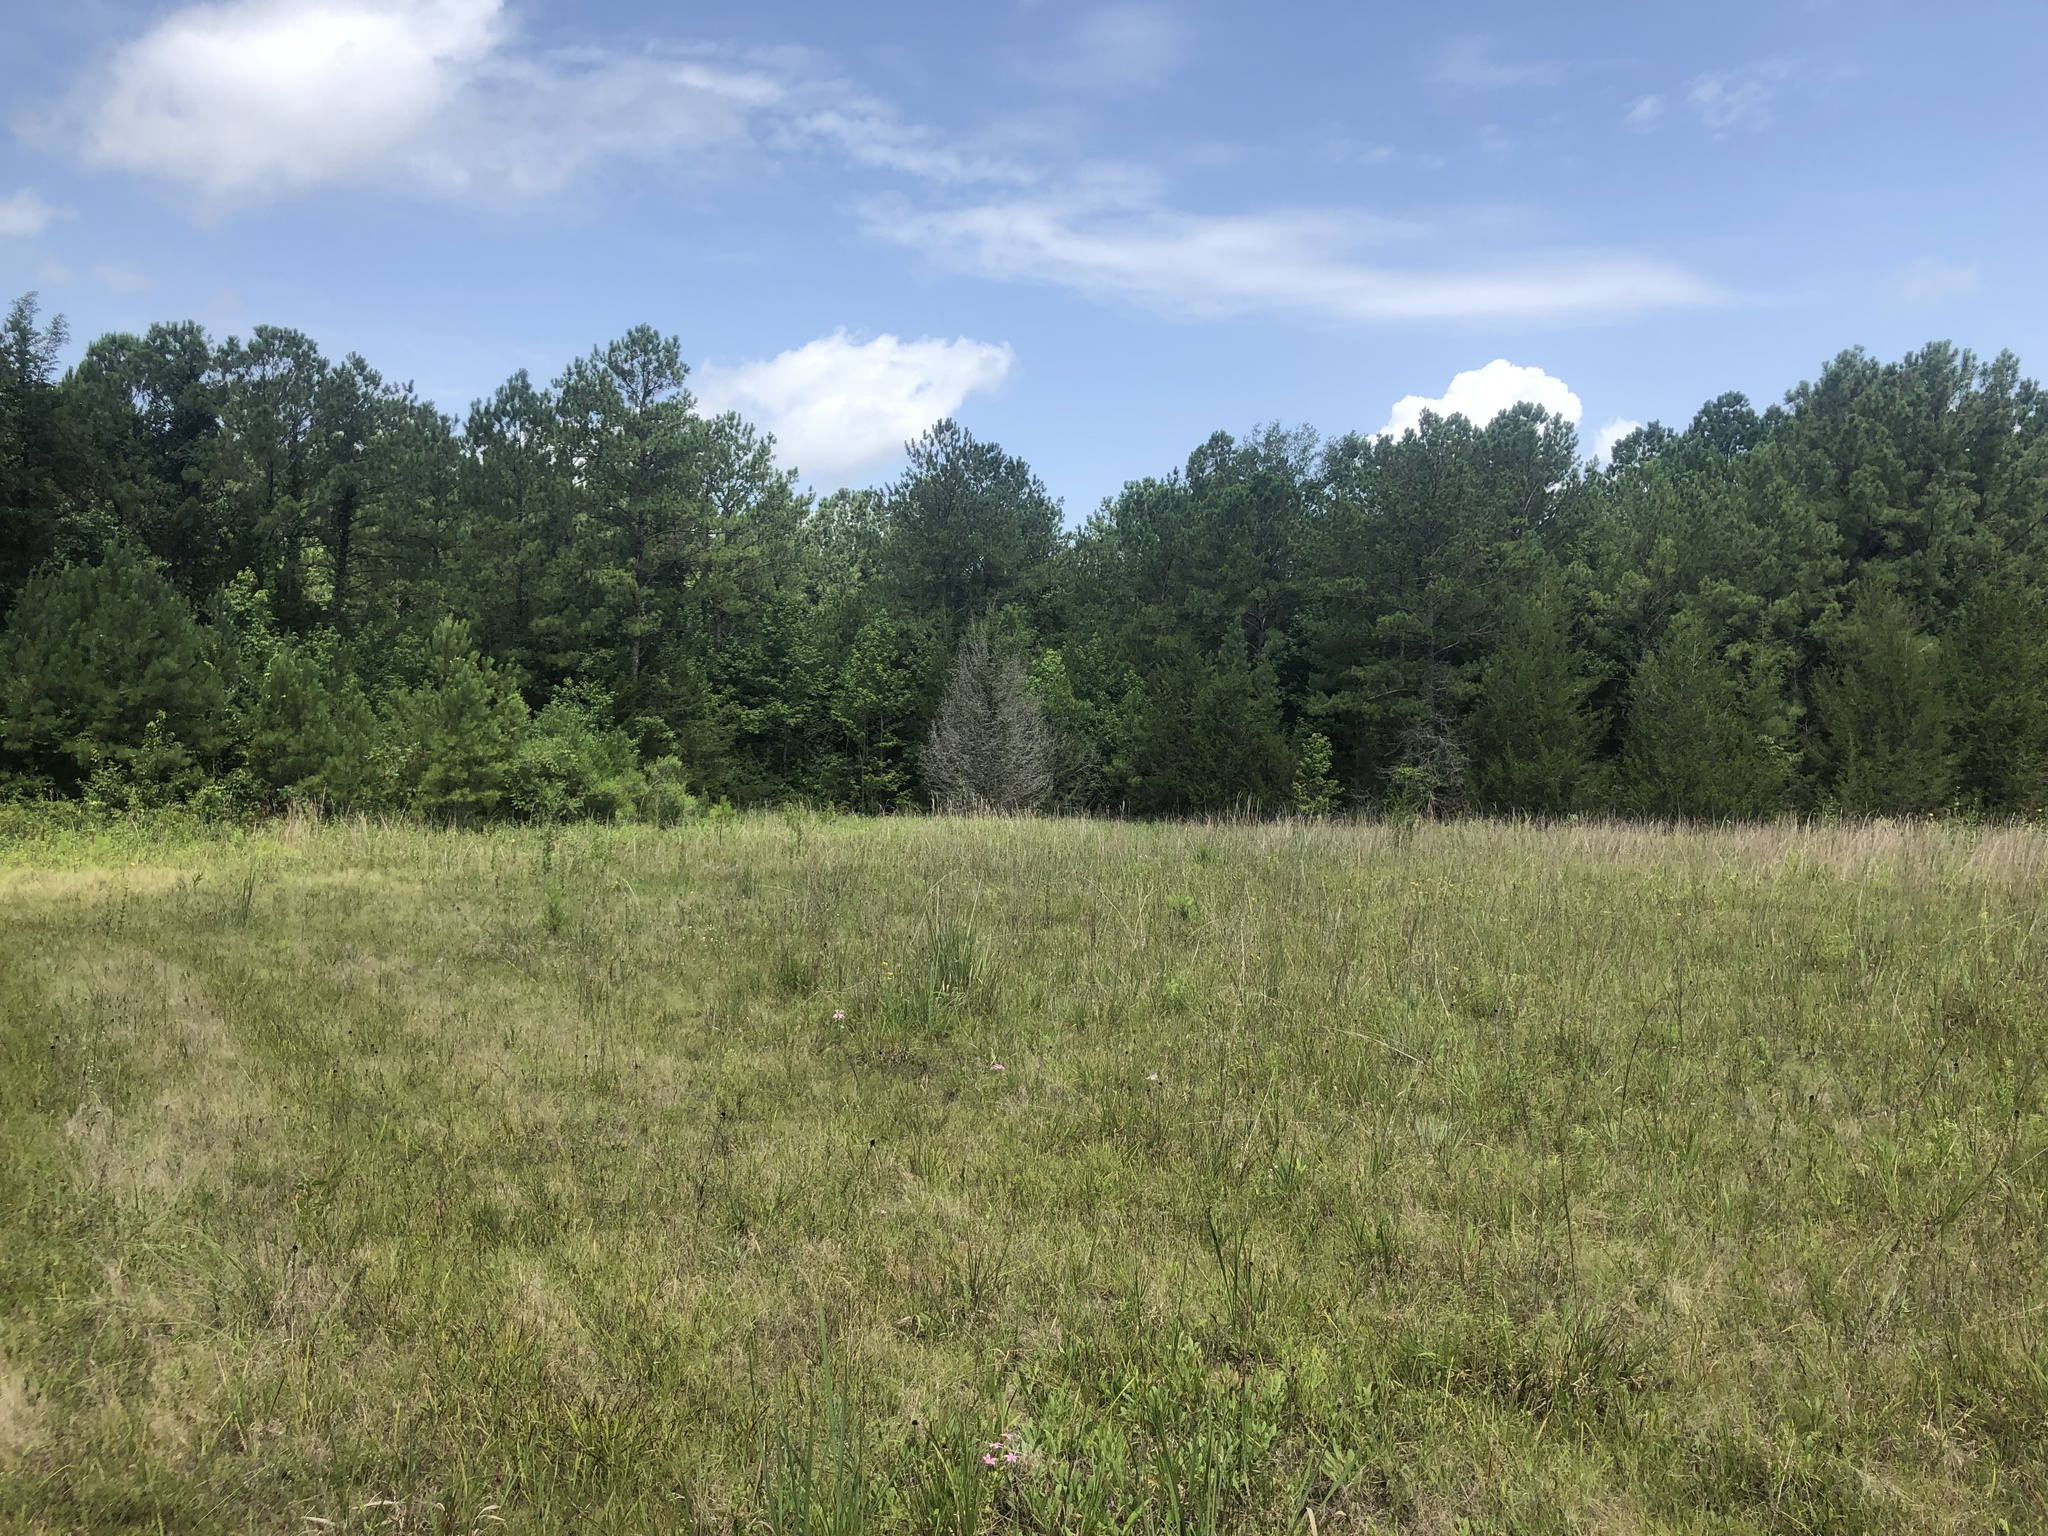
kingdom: Plantae
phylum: Tracheophyta
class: Pinopsida
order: Pinales
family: Cupressaceae
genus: Juniperus
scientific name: Juniperus virginiana
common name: Red juniper
